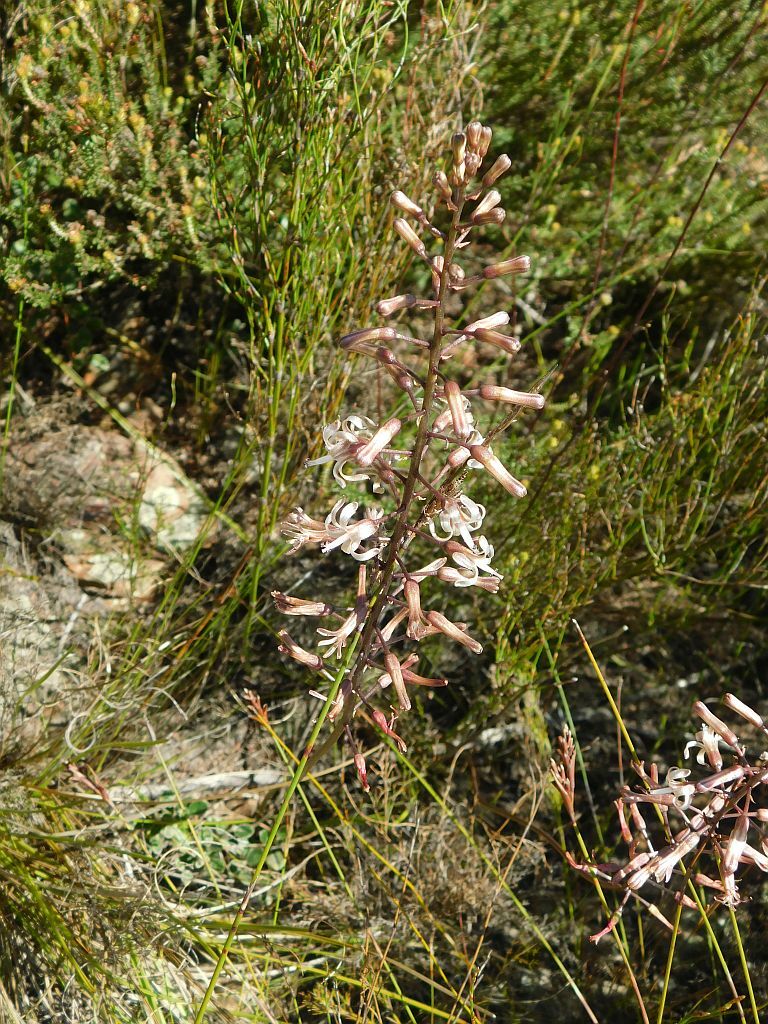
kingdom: Plantae
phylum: Tracheophyta
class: Liliopsida
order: Asparagales
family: Asparagaceae
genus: Drimia
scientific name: Drimia media
